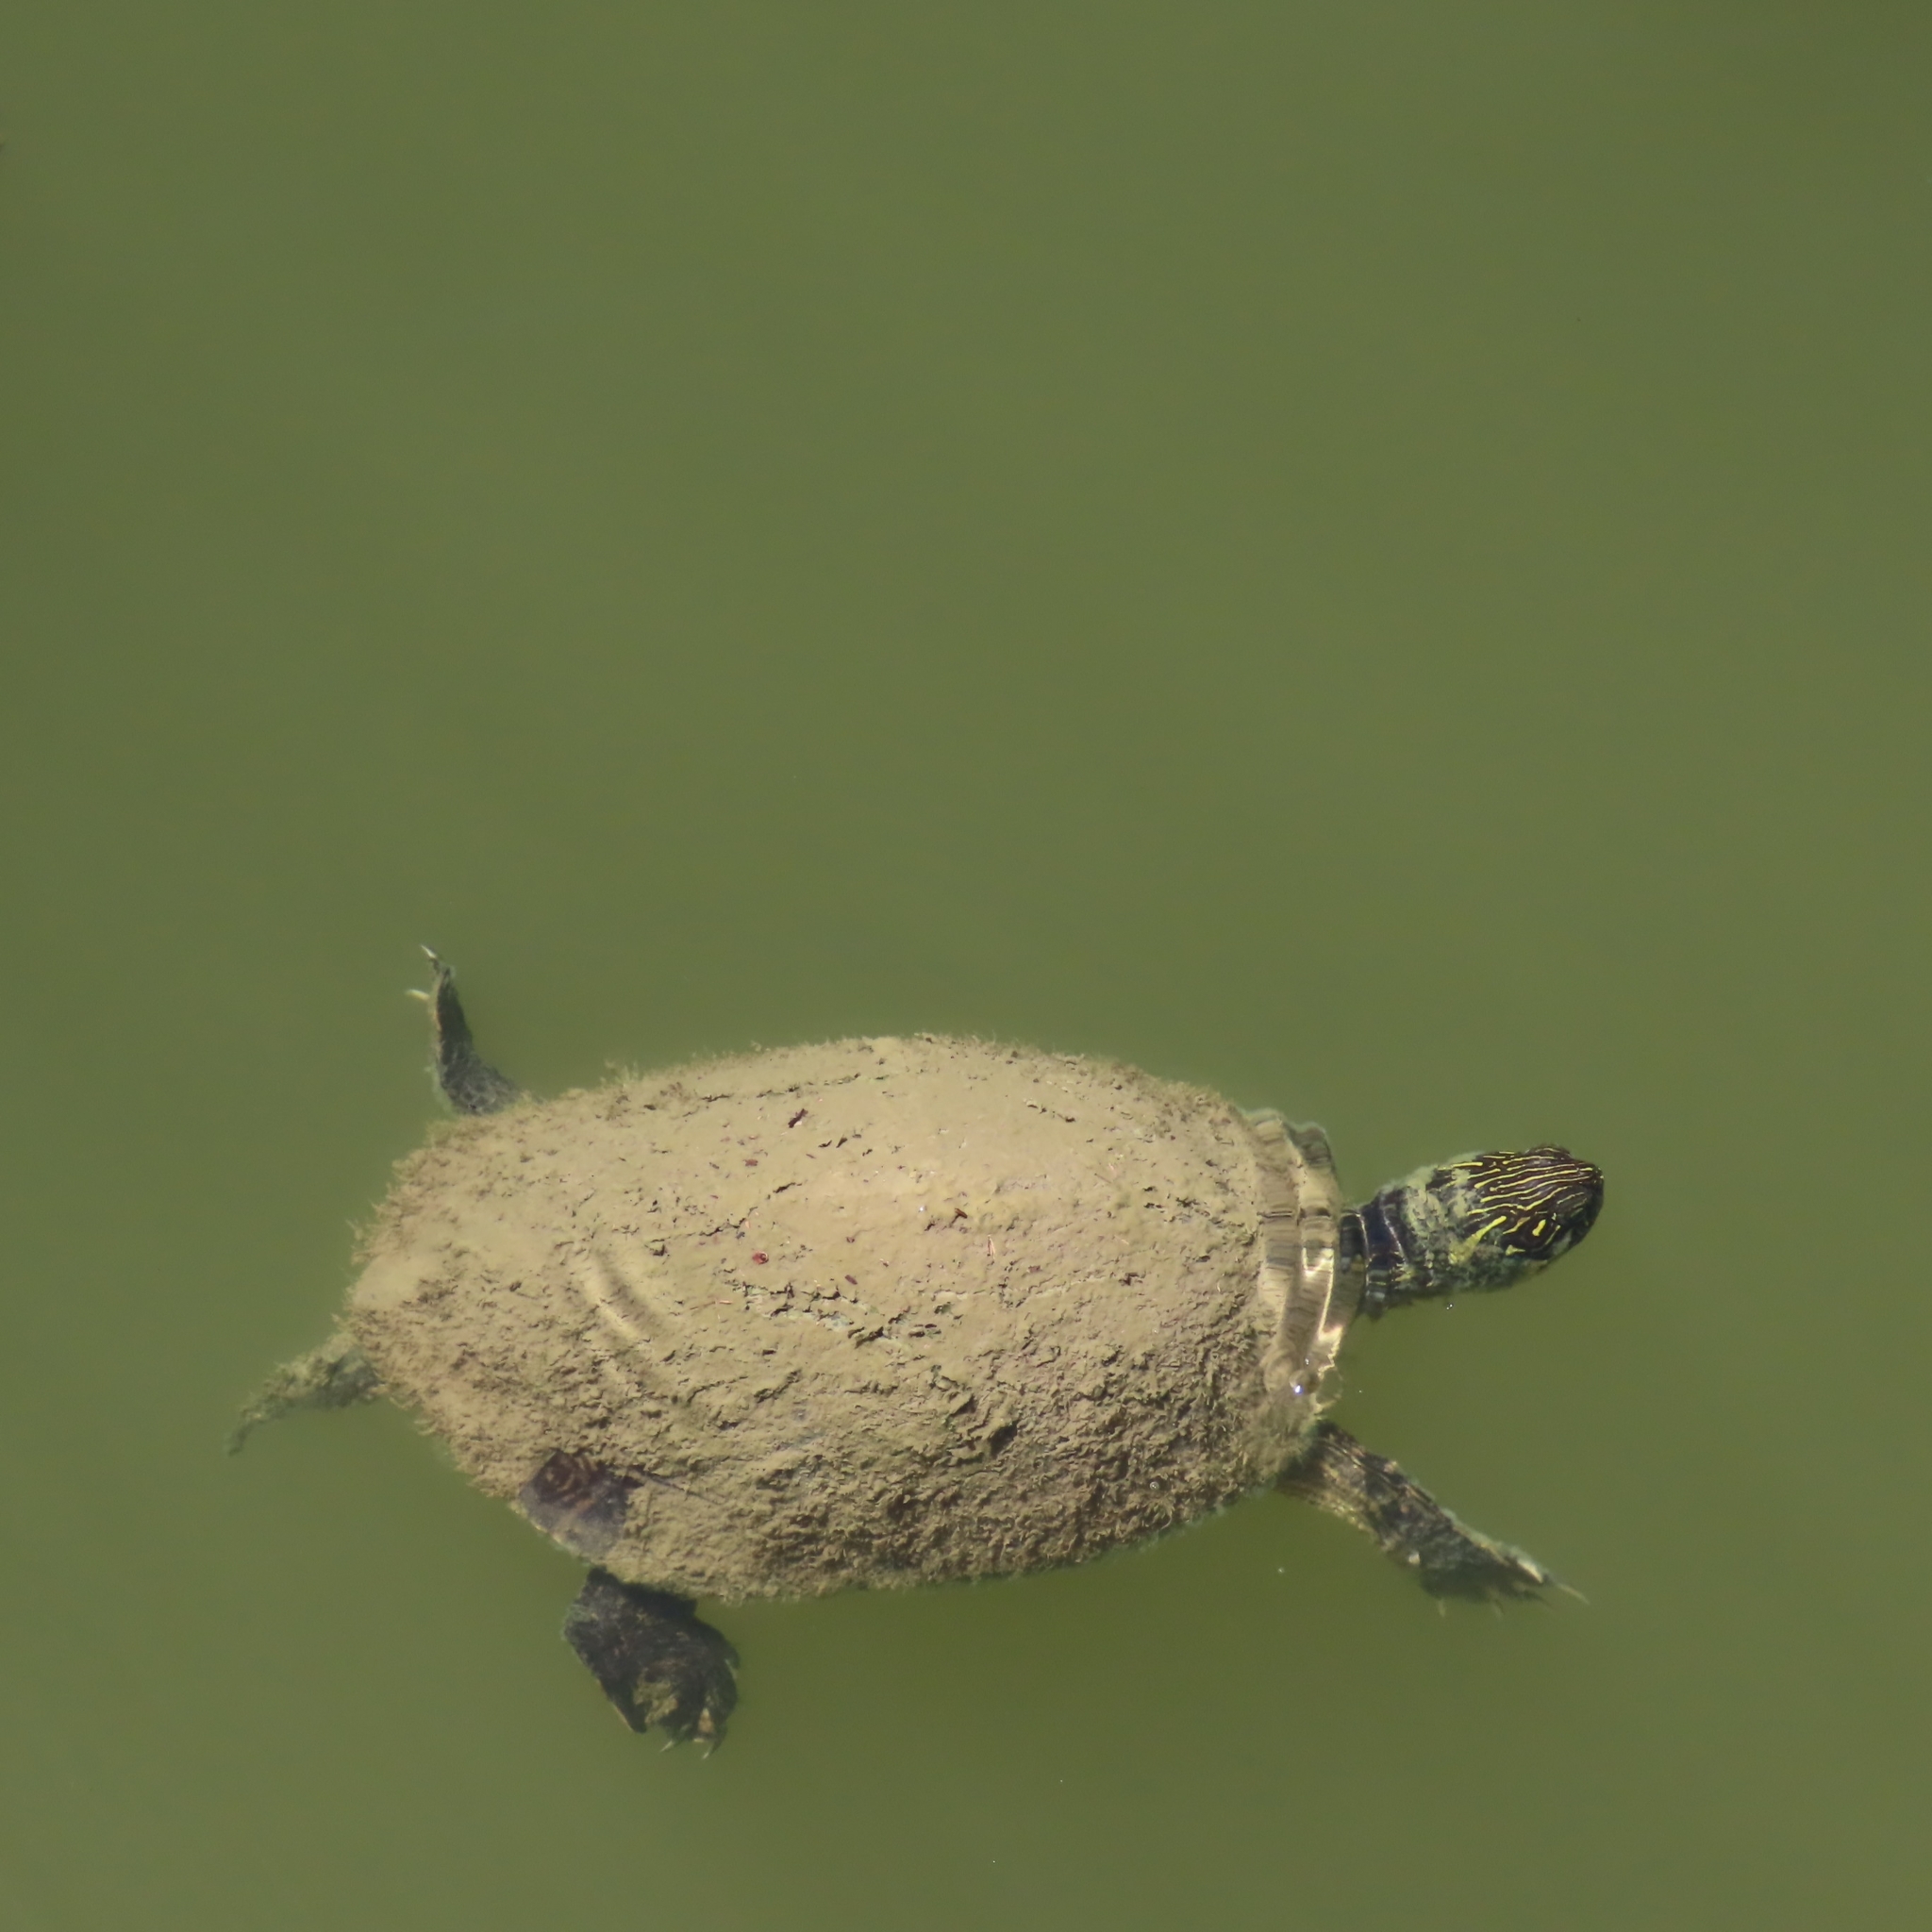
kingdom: Animalia
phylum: Chordata
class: Testudines
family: Emydidae
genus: Pseudemys
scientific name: Pseudemys texana
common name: Texas river cooter
